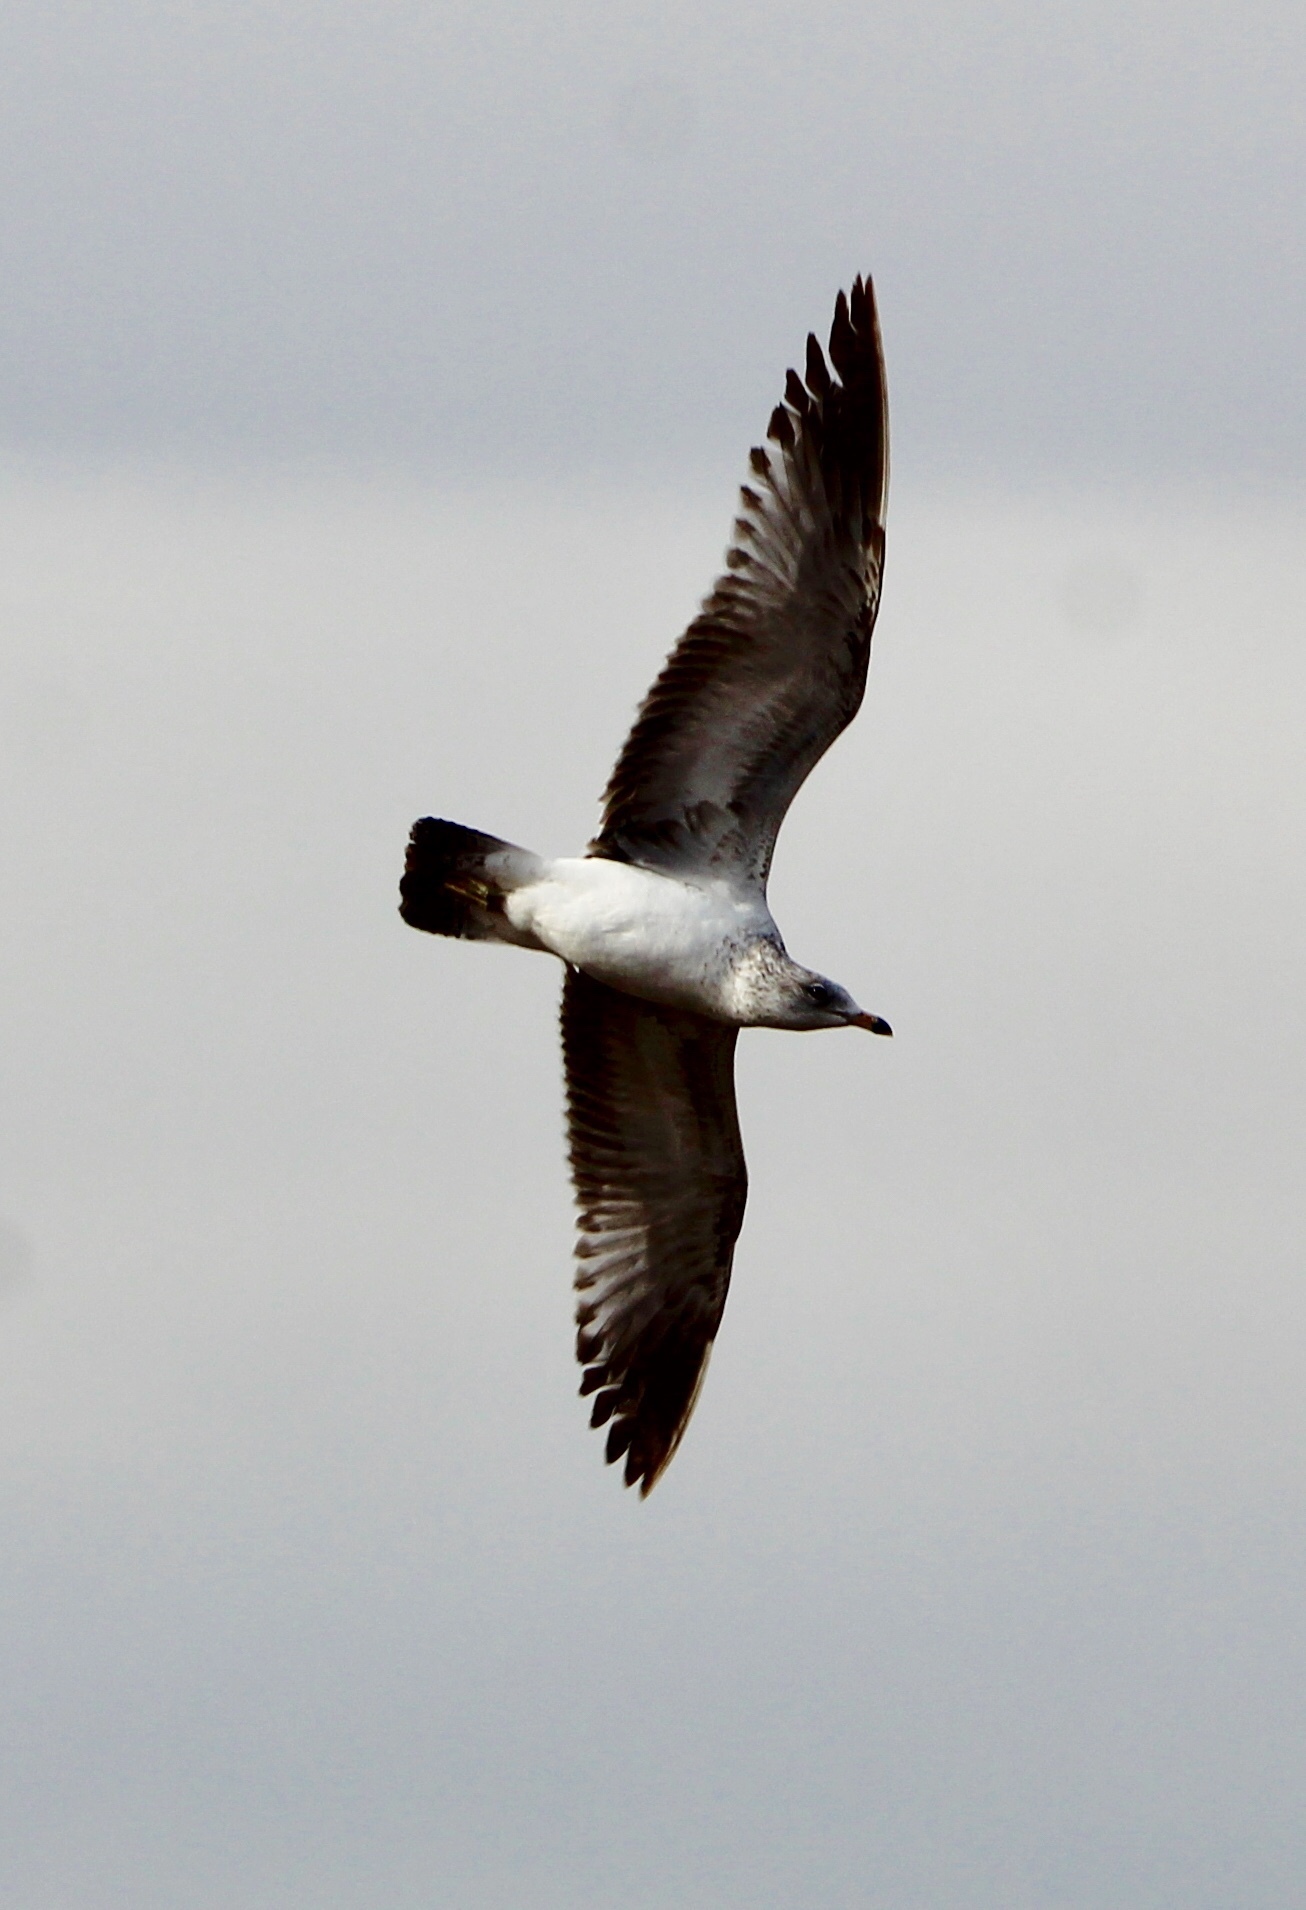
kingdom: Animalia
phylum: Chordata
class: Aves
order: Charadriiformes
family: Laridae
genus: Larus
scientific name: Larus californicus
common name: California gull
